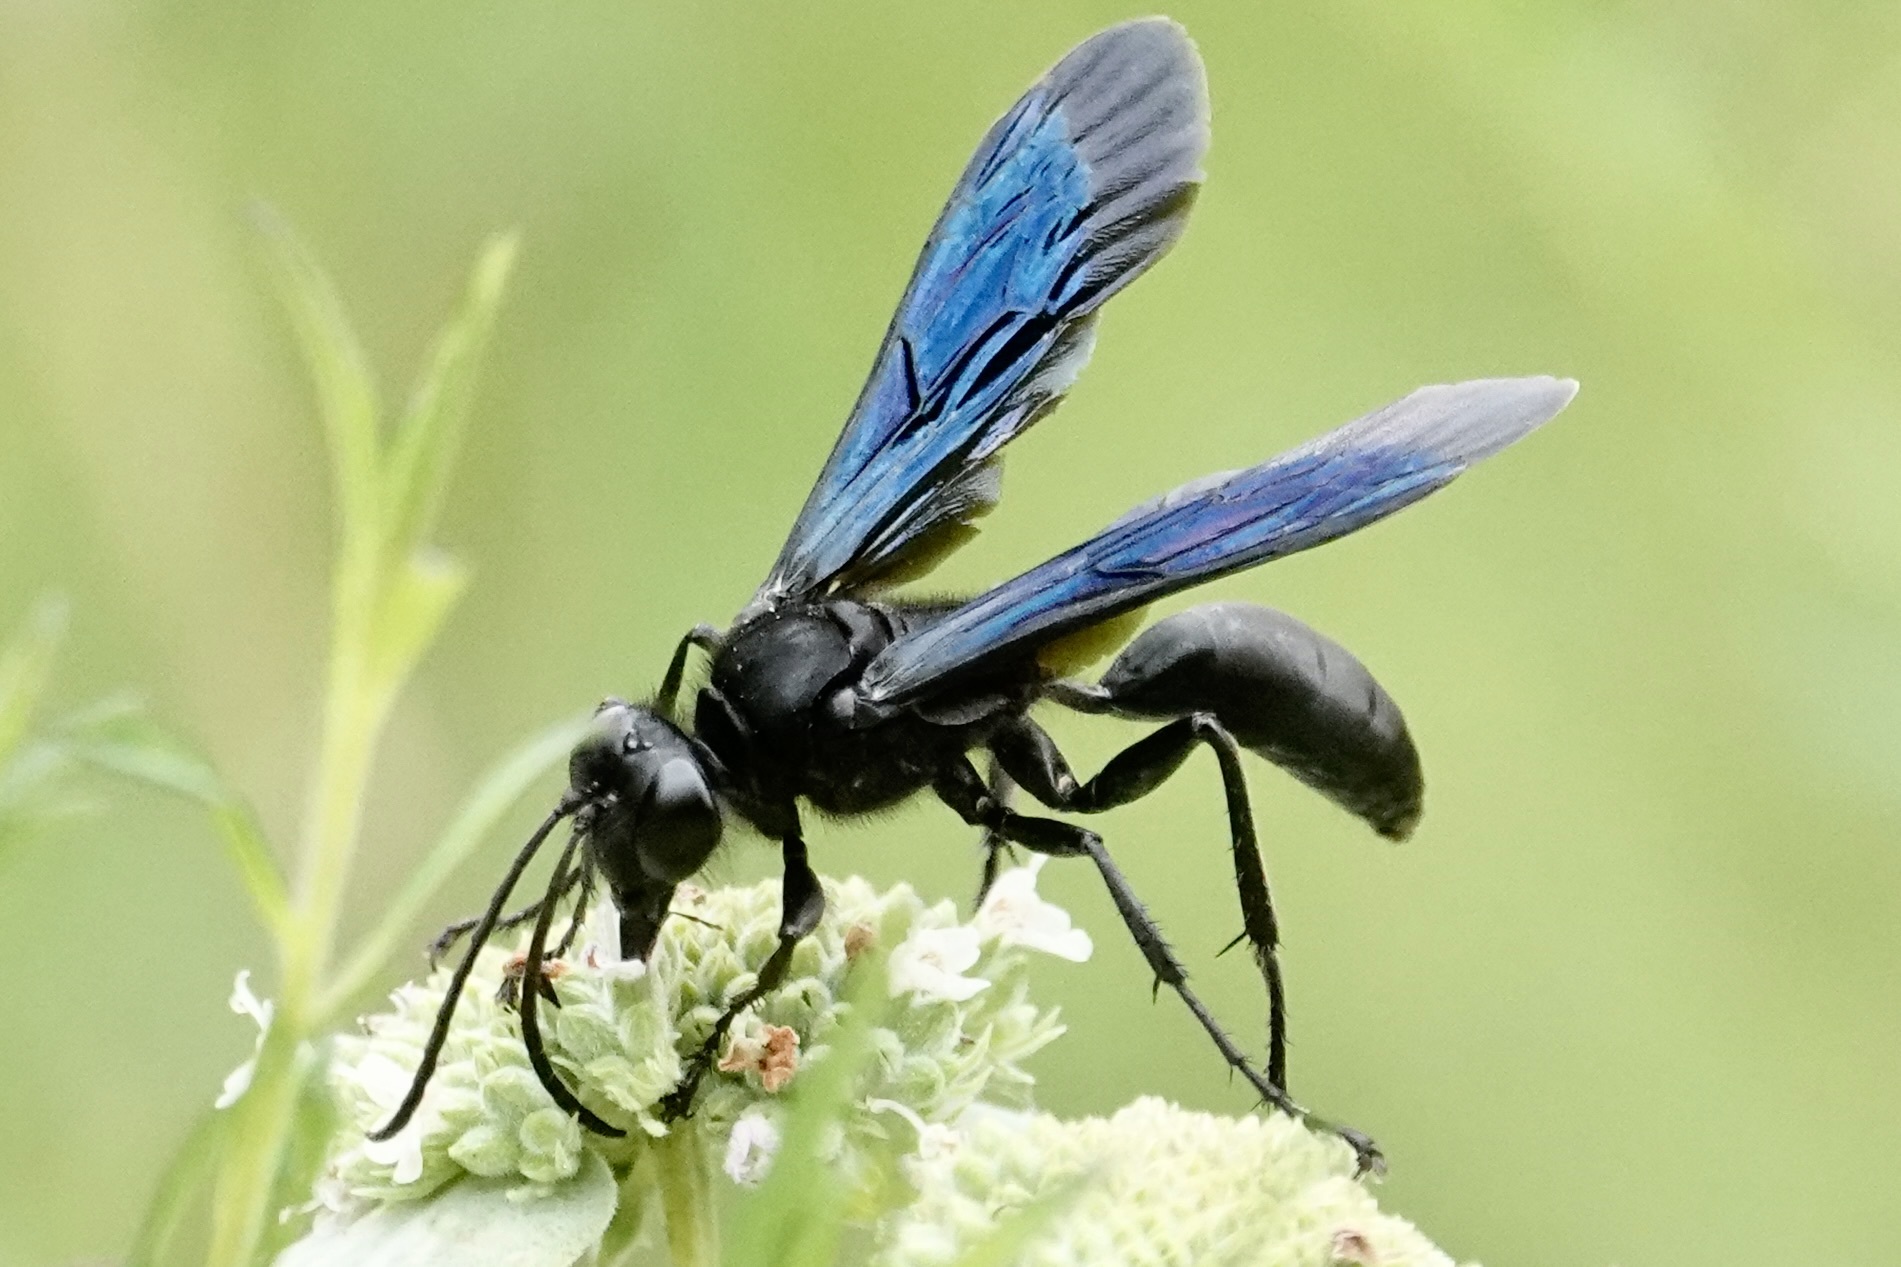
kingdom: Animalia
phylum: Arthropoda
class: Insecta
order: Hymenoptera
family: Sphecidae
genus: Sphex
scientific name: Sphex pensylvanicus
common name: Great black digger wasp
